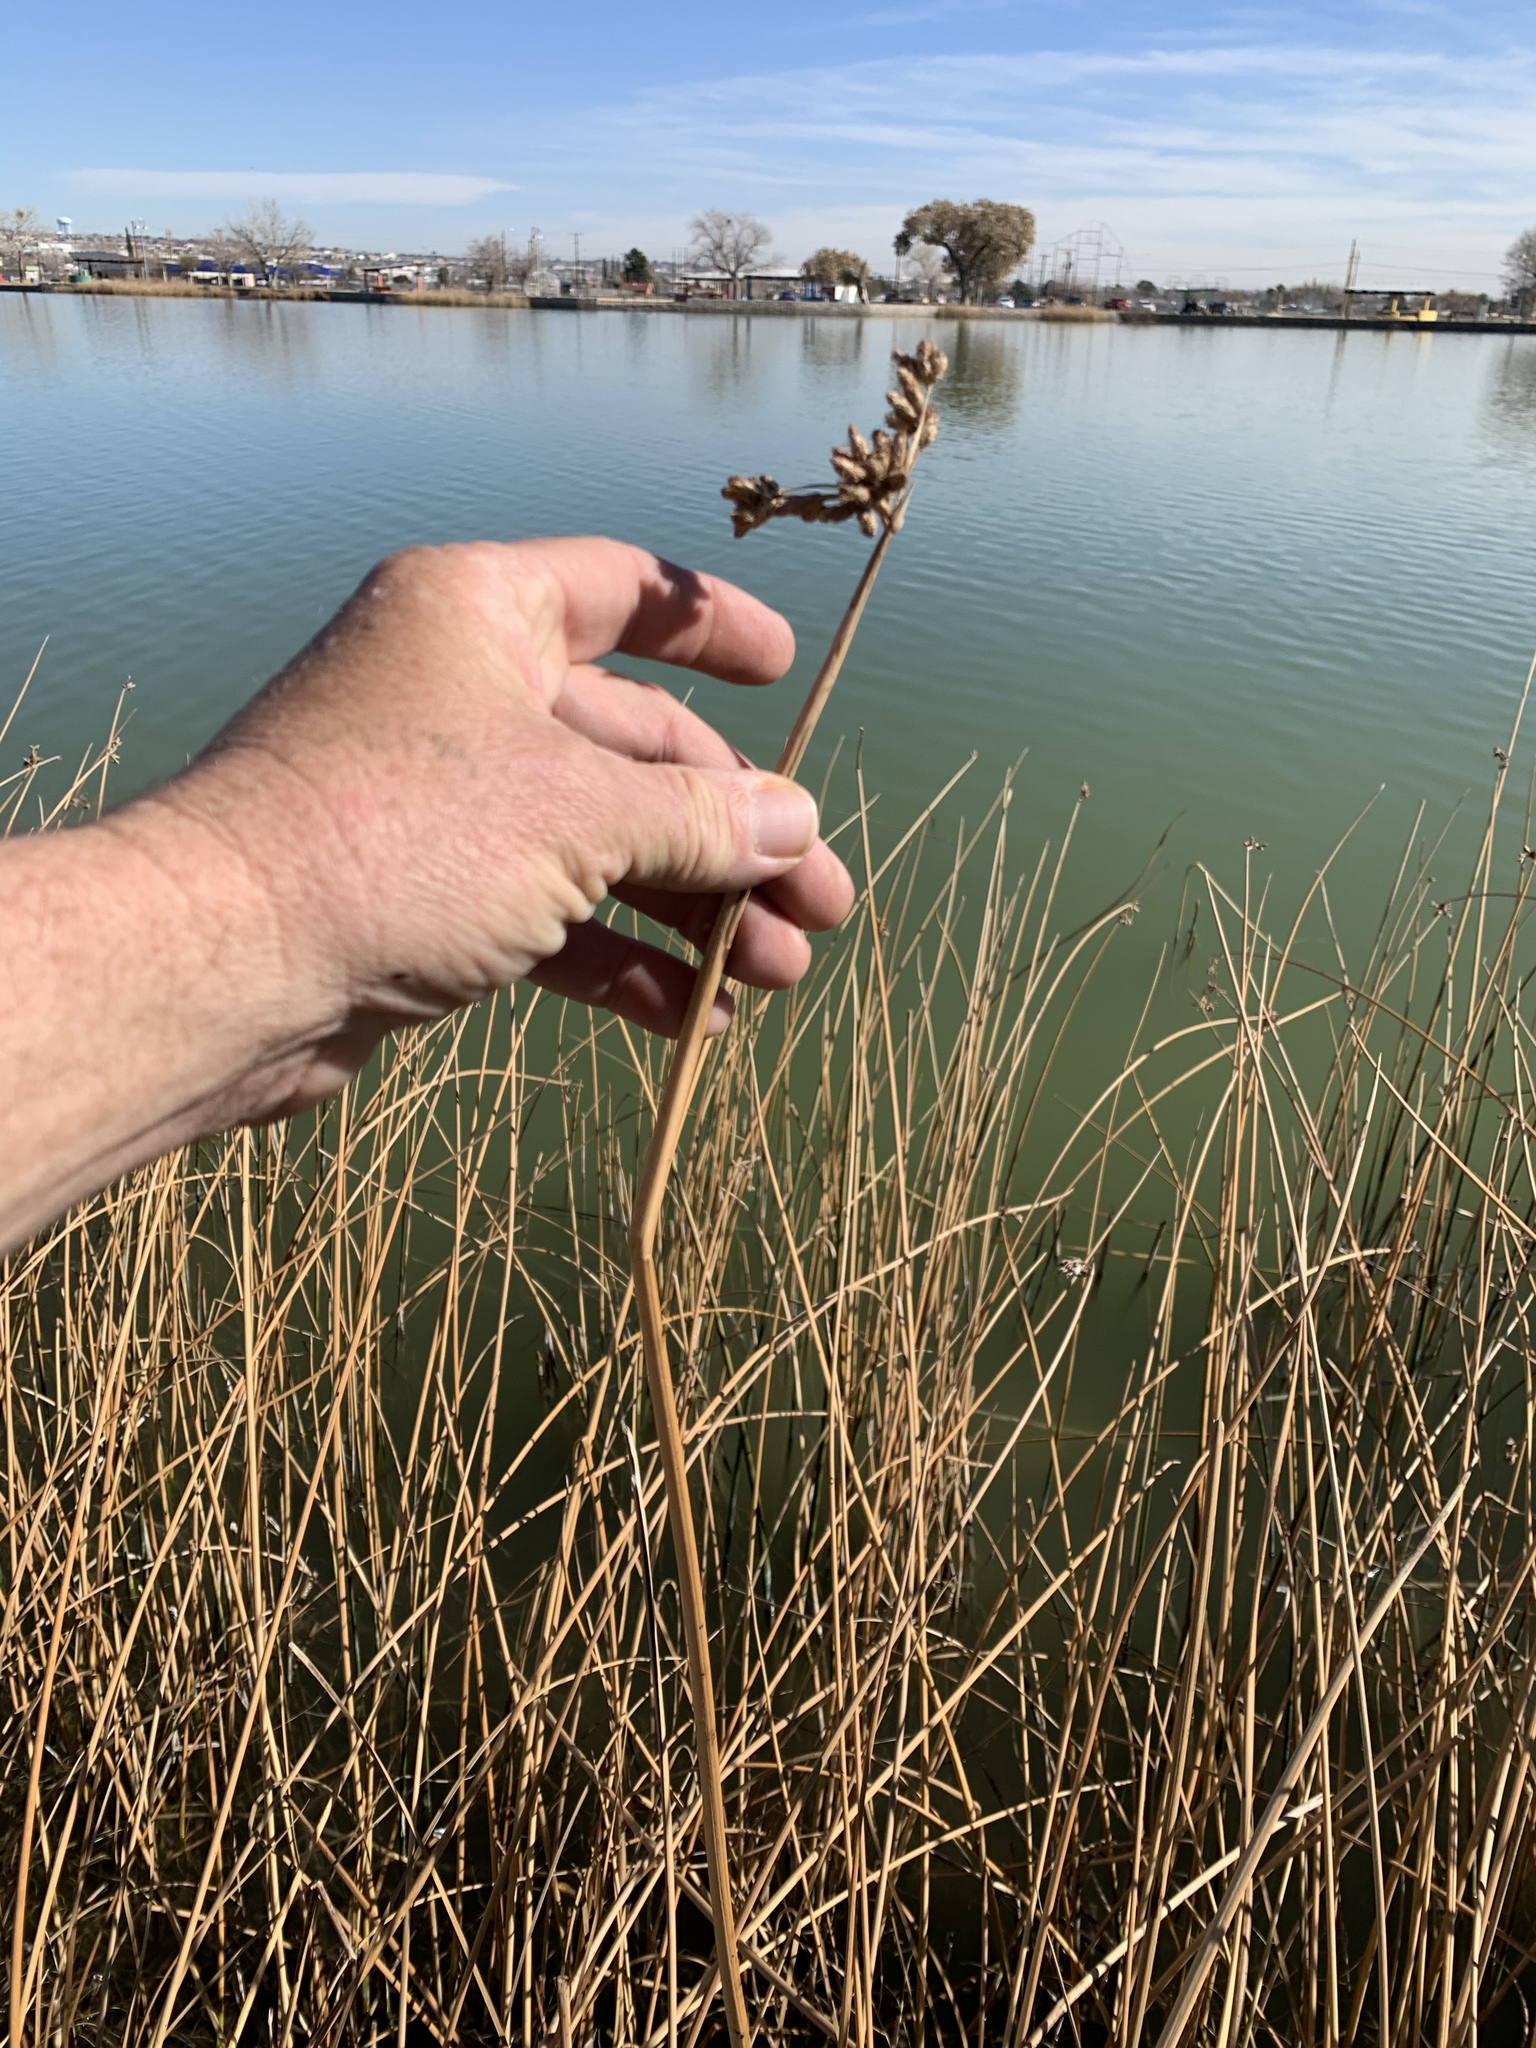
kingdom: Plantae
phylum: Tracheophyta
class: Liliopsida
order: Poales
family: Cyperaceae
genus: Schoenoplectus
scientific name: Schoenoplectus acutus
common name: Hardstem bulrush
